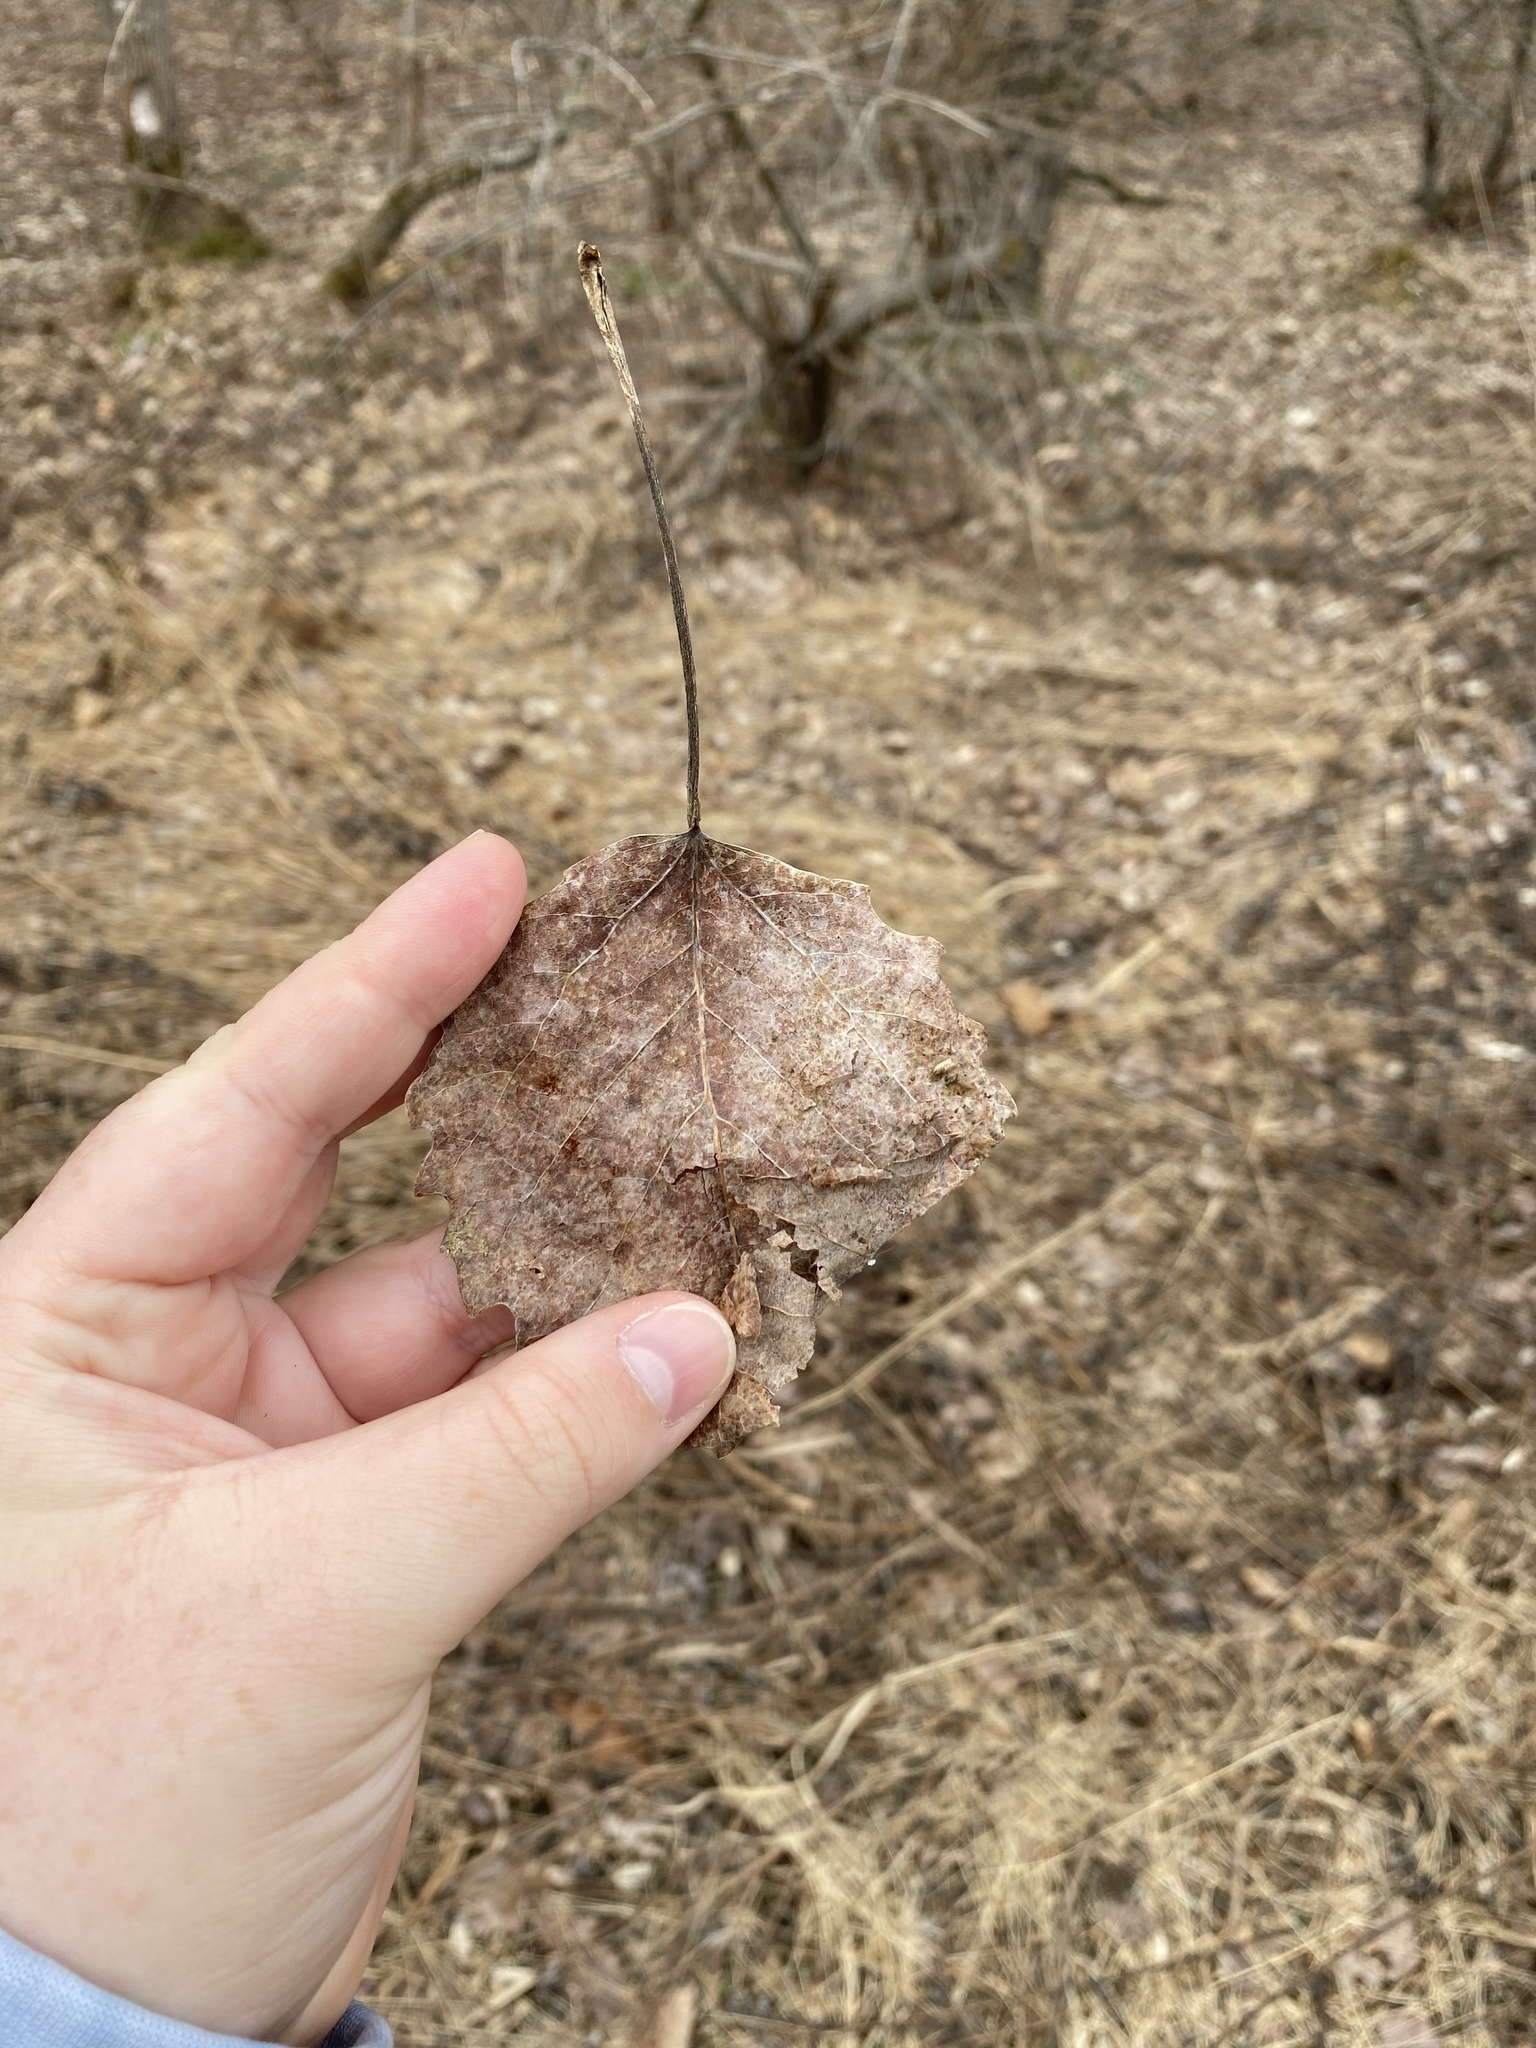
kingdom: Plantae
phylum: Tracheophyta
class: Magnoliopsida
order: Malpighiales
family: Salicaceae
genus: Populus
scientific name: Populus grandidentata
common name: Bigtooth aspen
